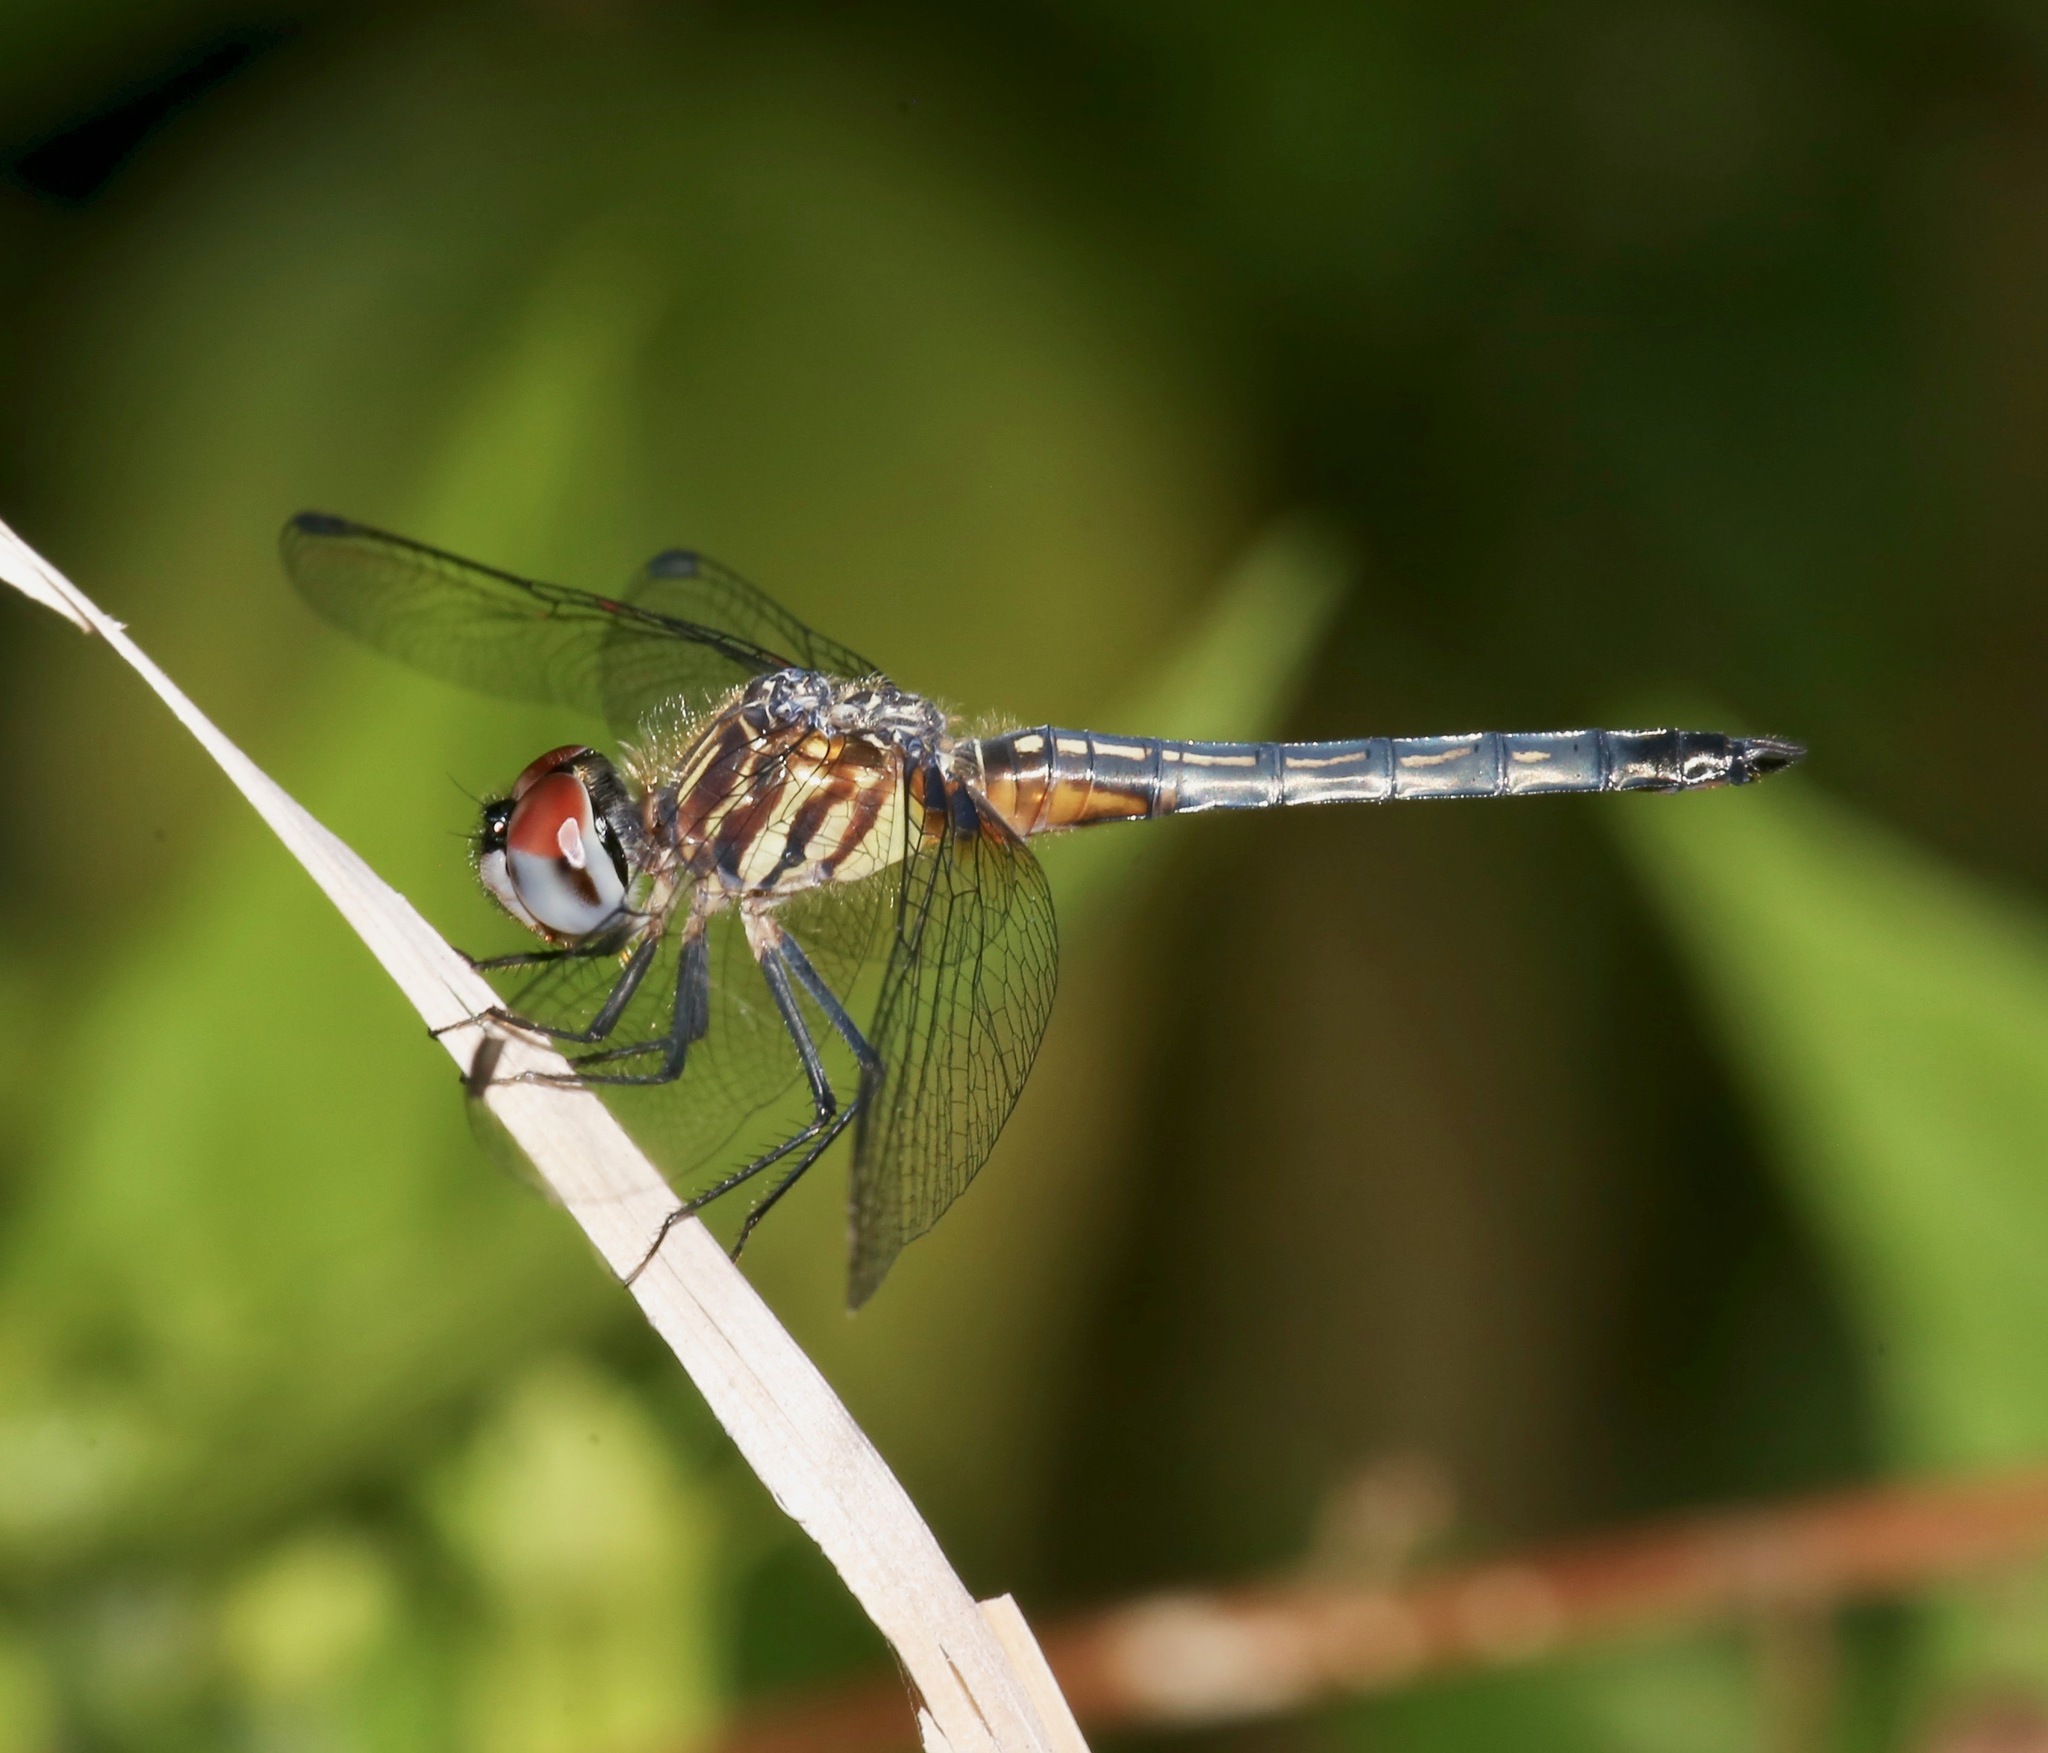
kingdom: Animalia
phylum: Arthropoda
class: Insecta
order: Odonata
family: Libellulidae
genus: Pachydiplax
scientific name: Pachydiplax longipennis
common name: Blue dasher
